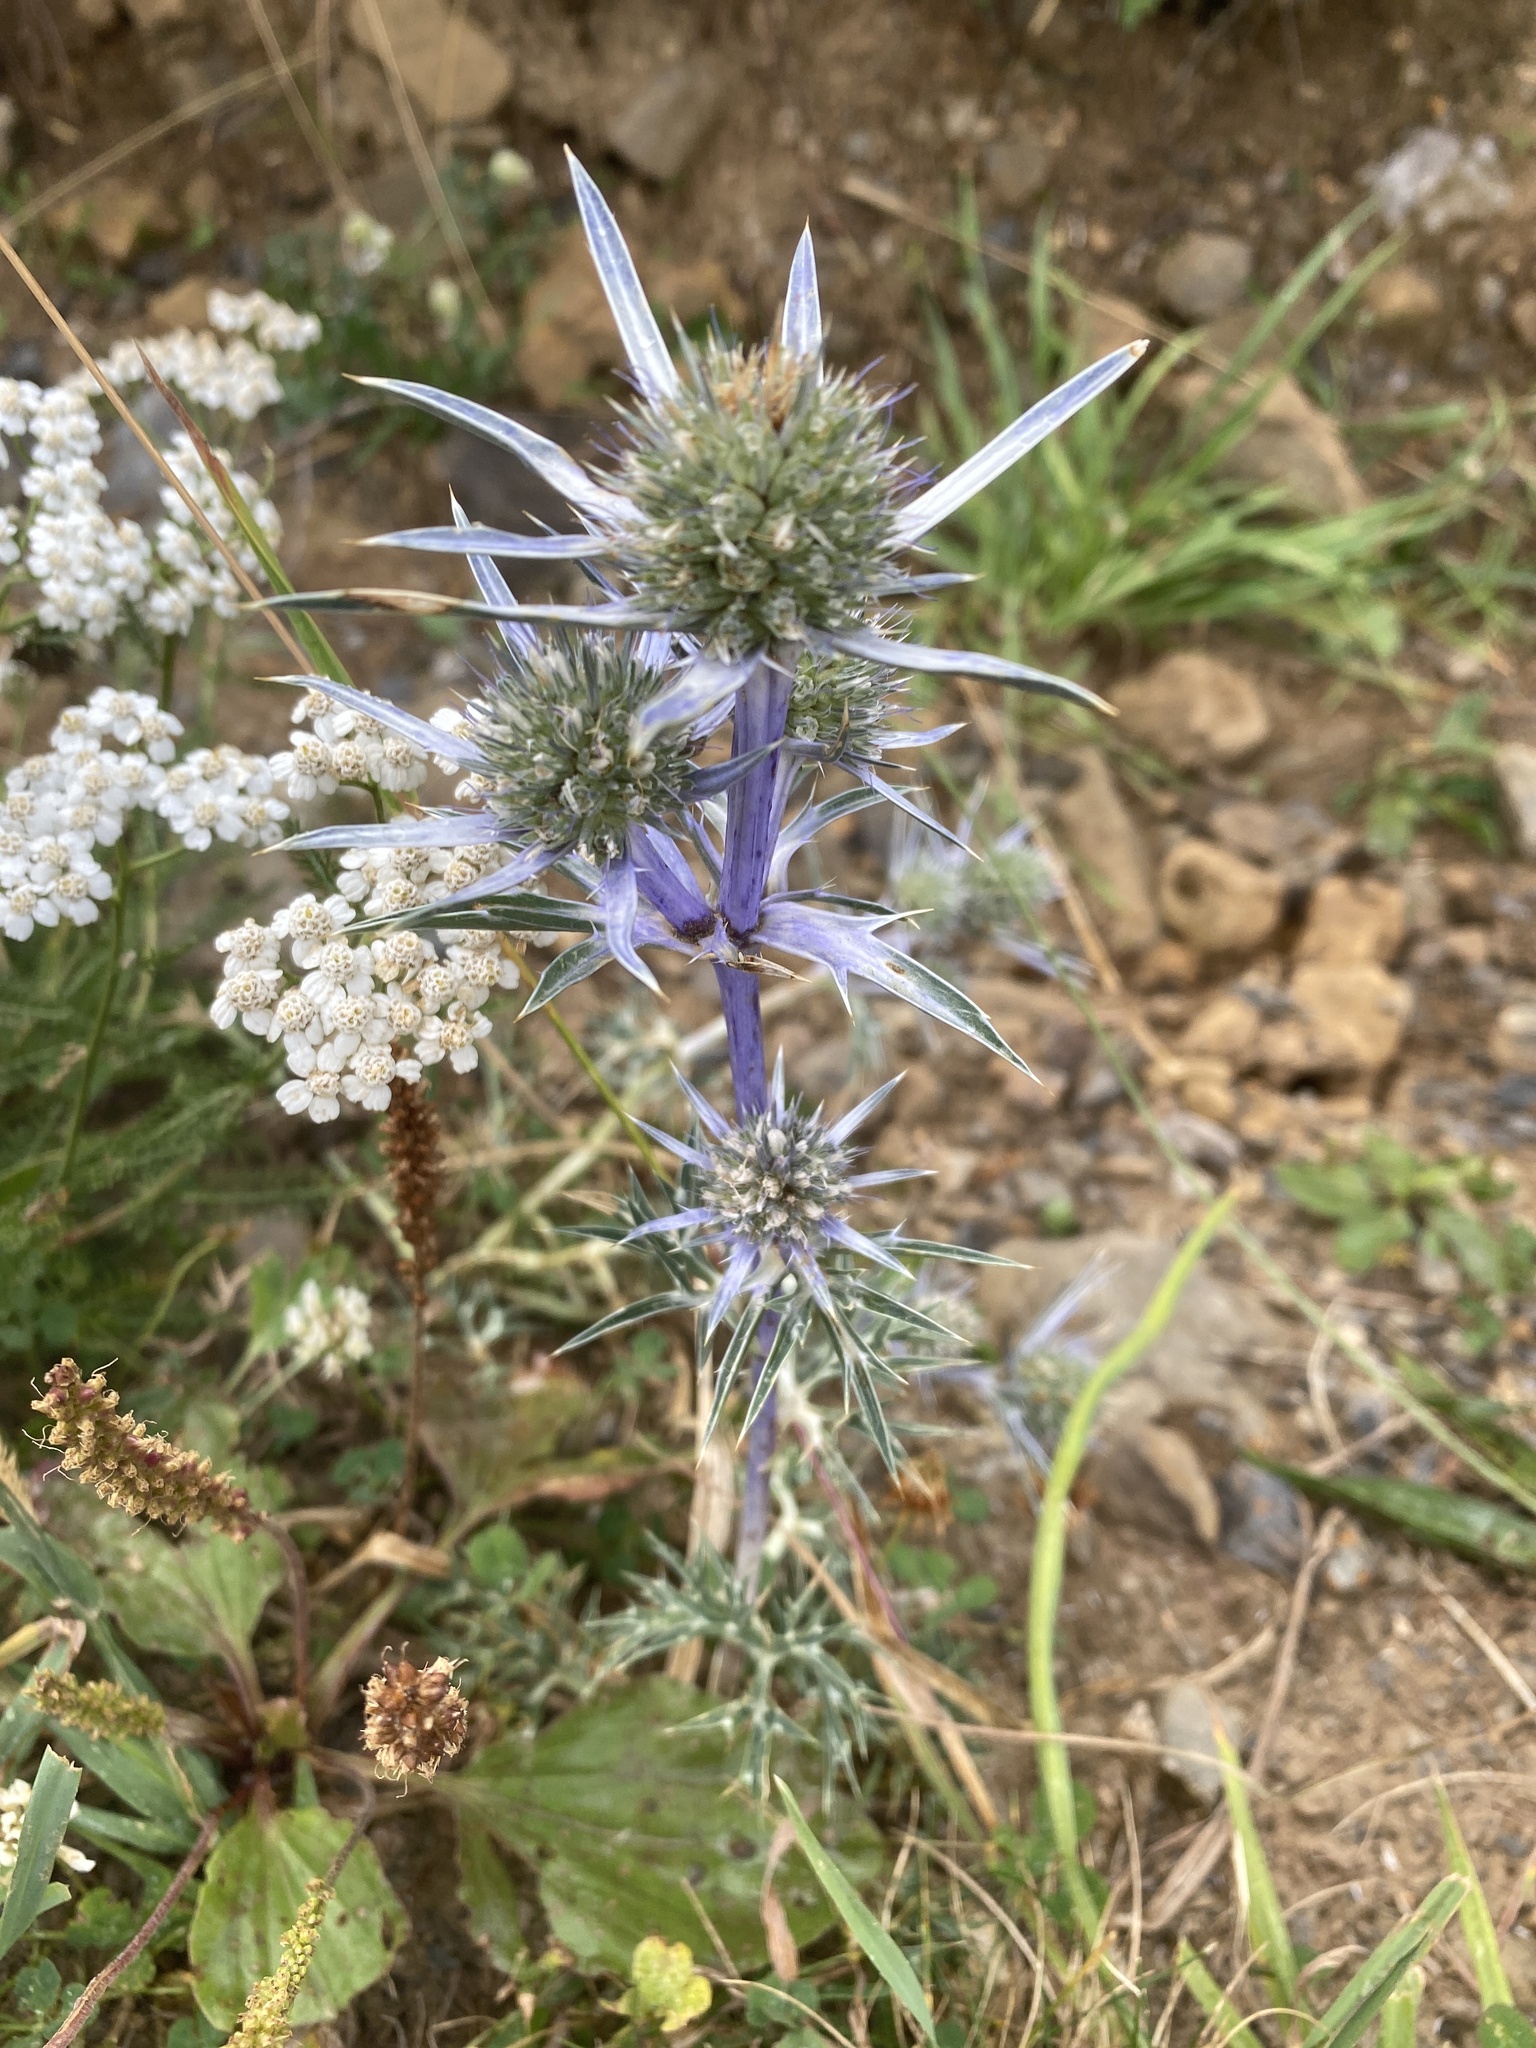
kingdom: Plantae
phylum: Tracheophyta
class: Magnoliopsida
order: Apiales
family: Apiaceae
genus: Eryngium
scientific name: Eryngium bourgatii
